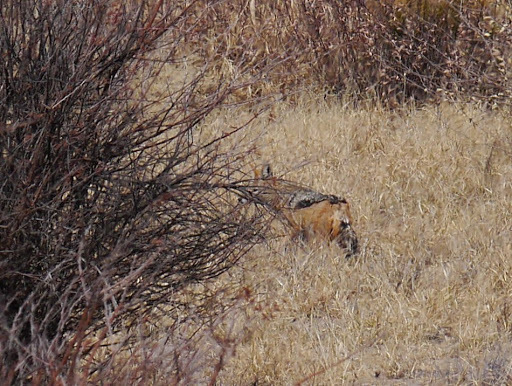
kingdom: Animalia
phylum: Chordata
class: Mammalia
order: Carnivora
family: Canidae
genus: Lupulella
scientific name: Lupulella
